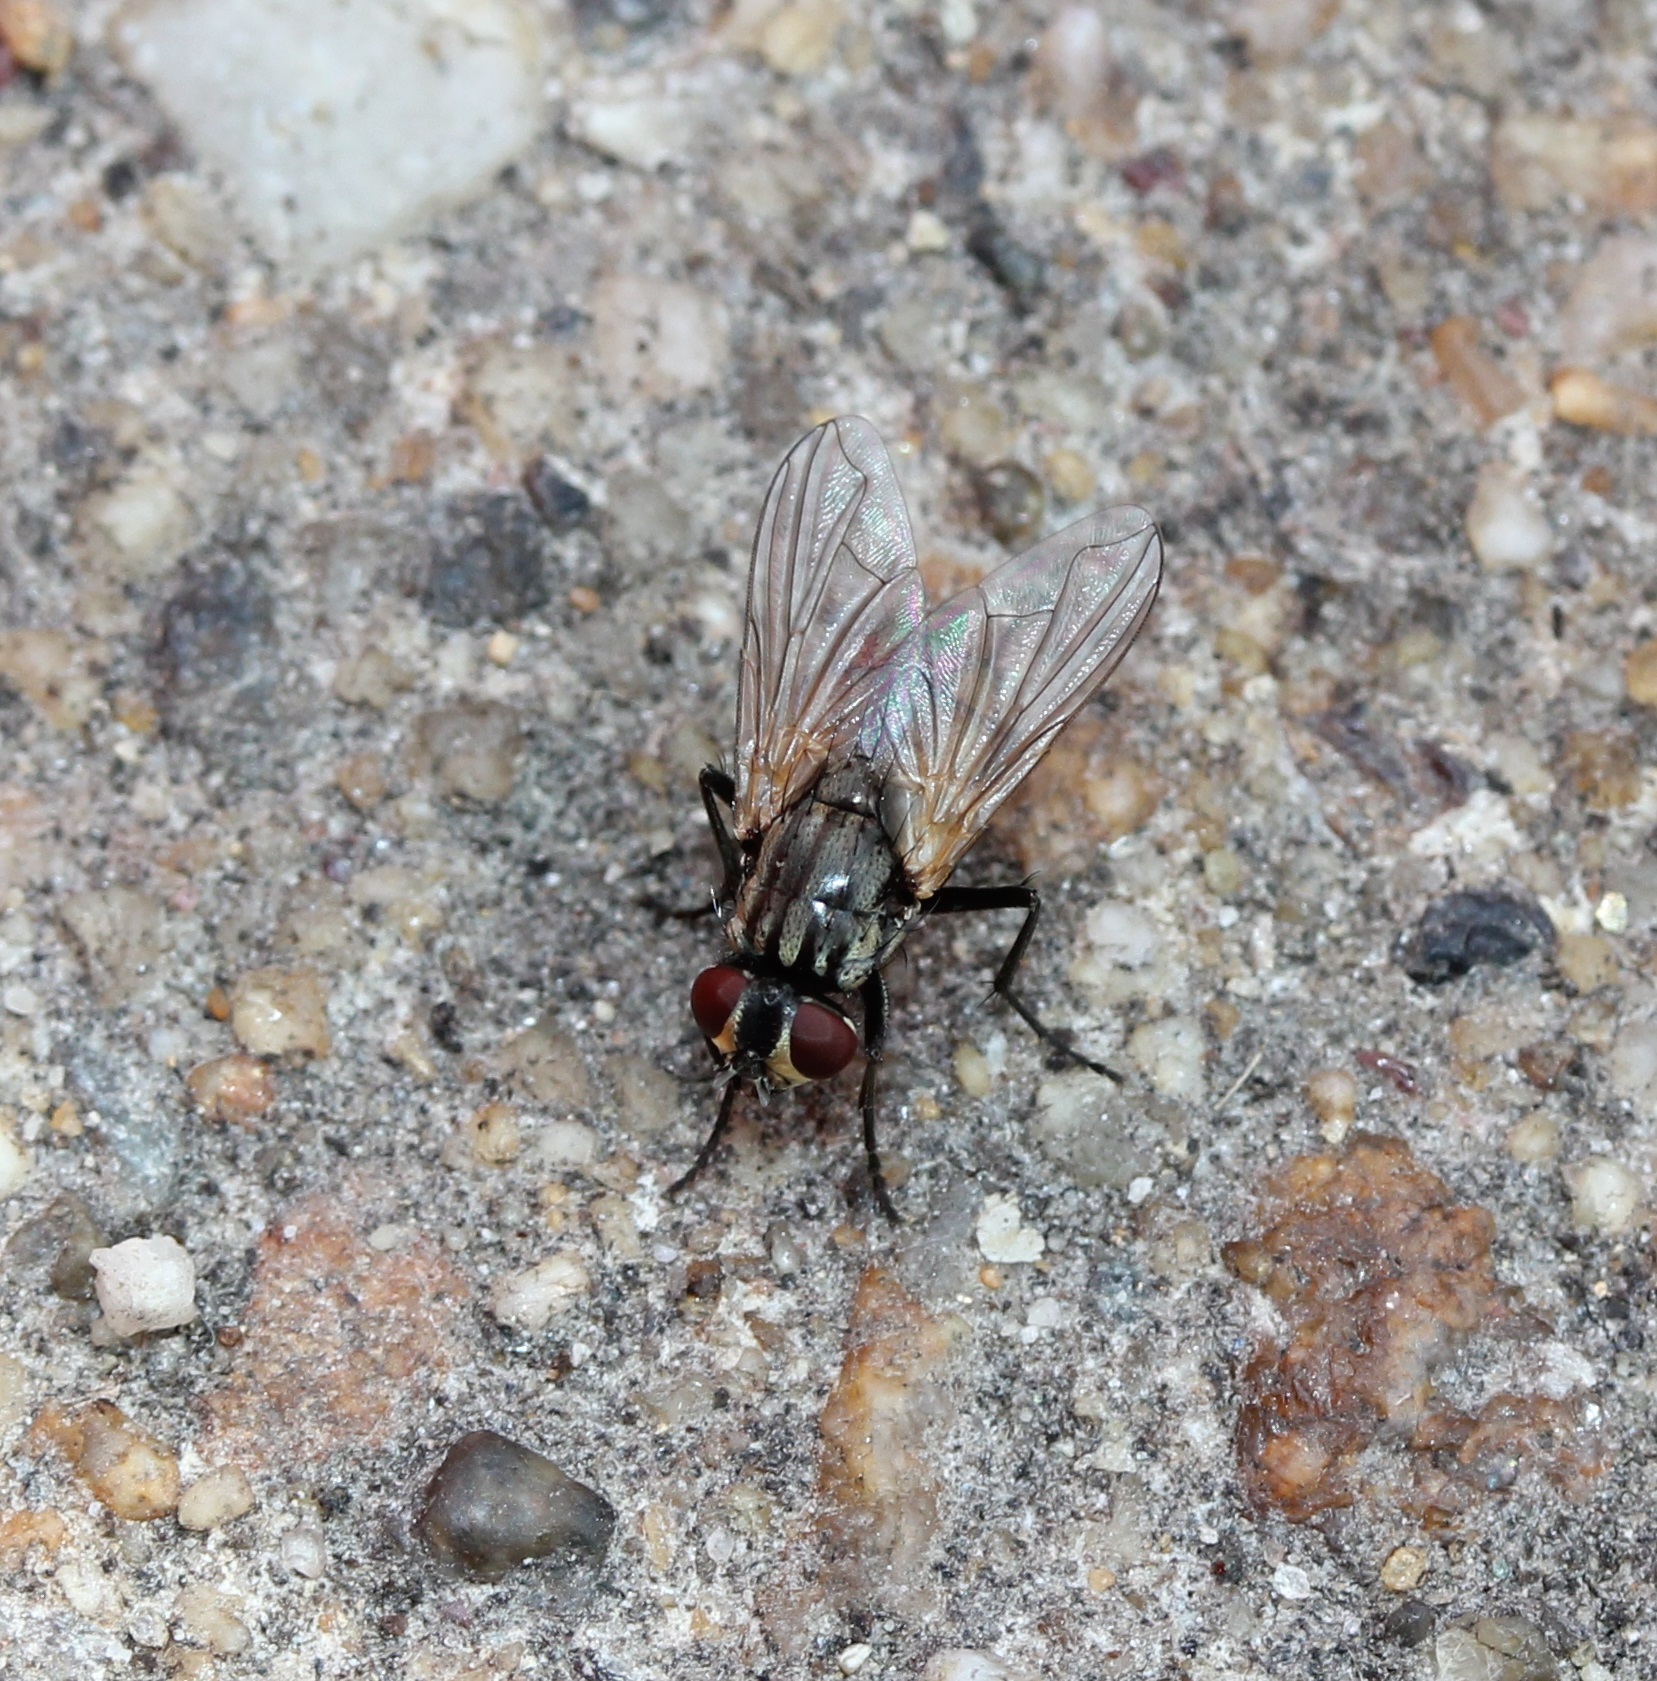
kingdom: Animalia
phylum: Arthropoda
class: Insecta
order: Diptera
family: Muscidae
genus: Musca
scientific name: Musca domestica
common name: House fly
